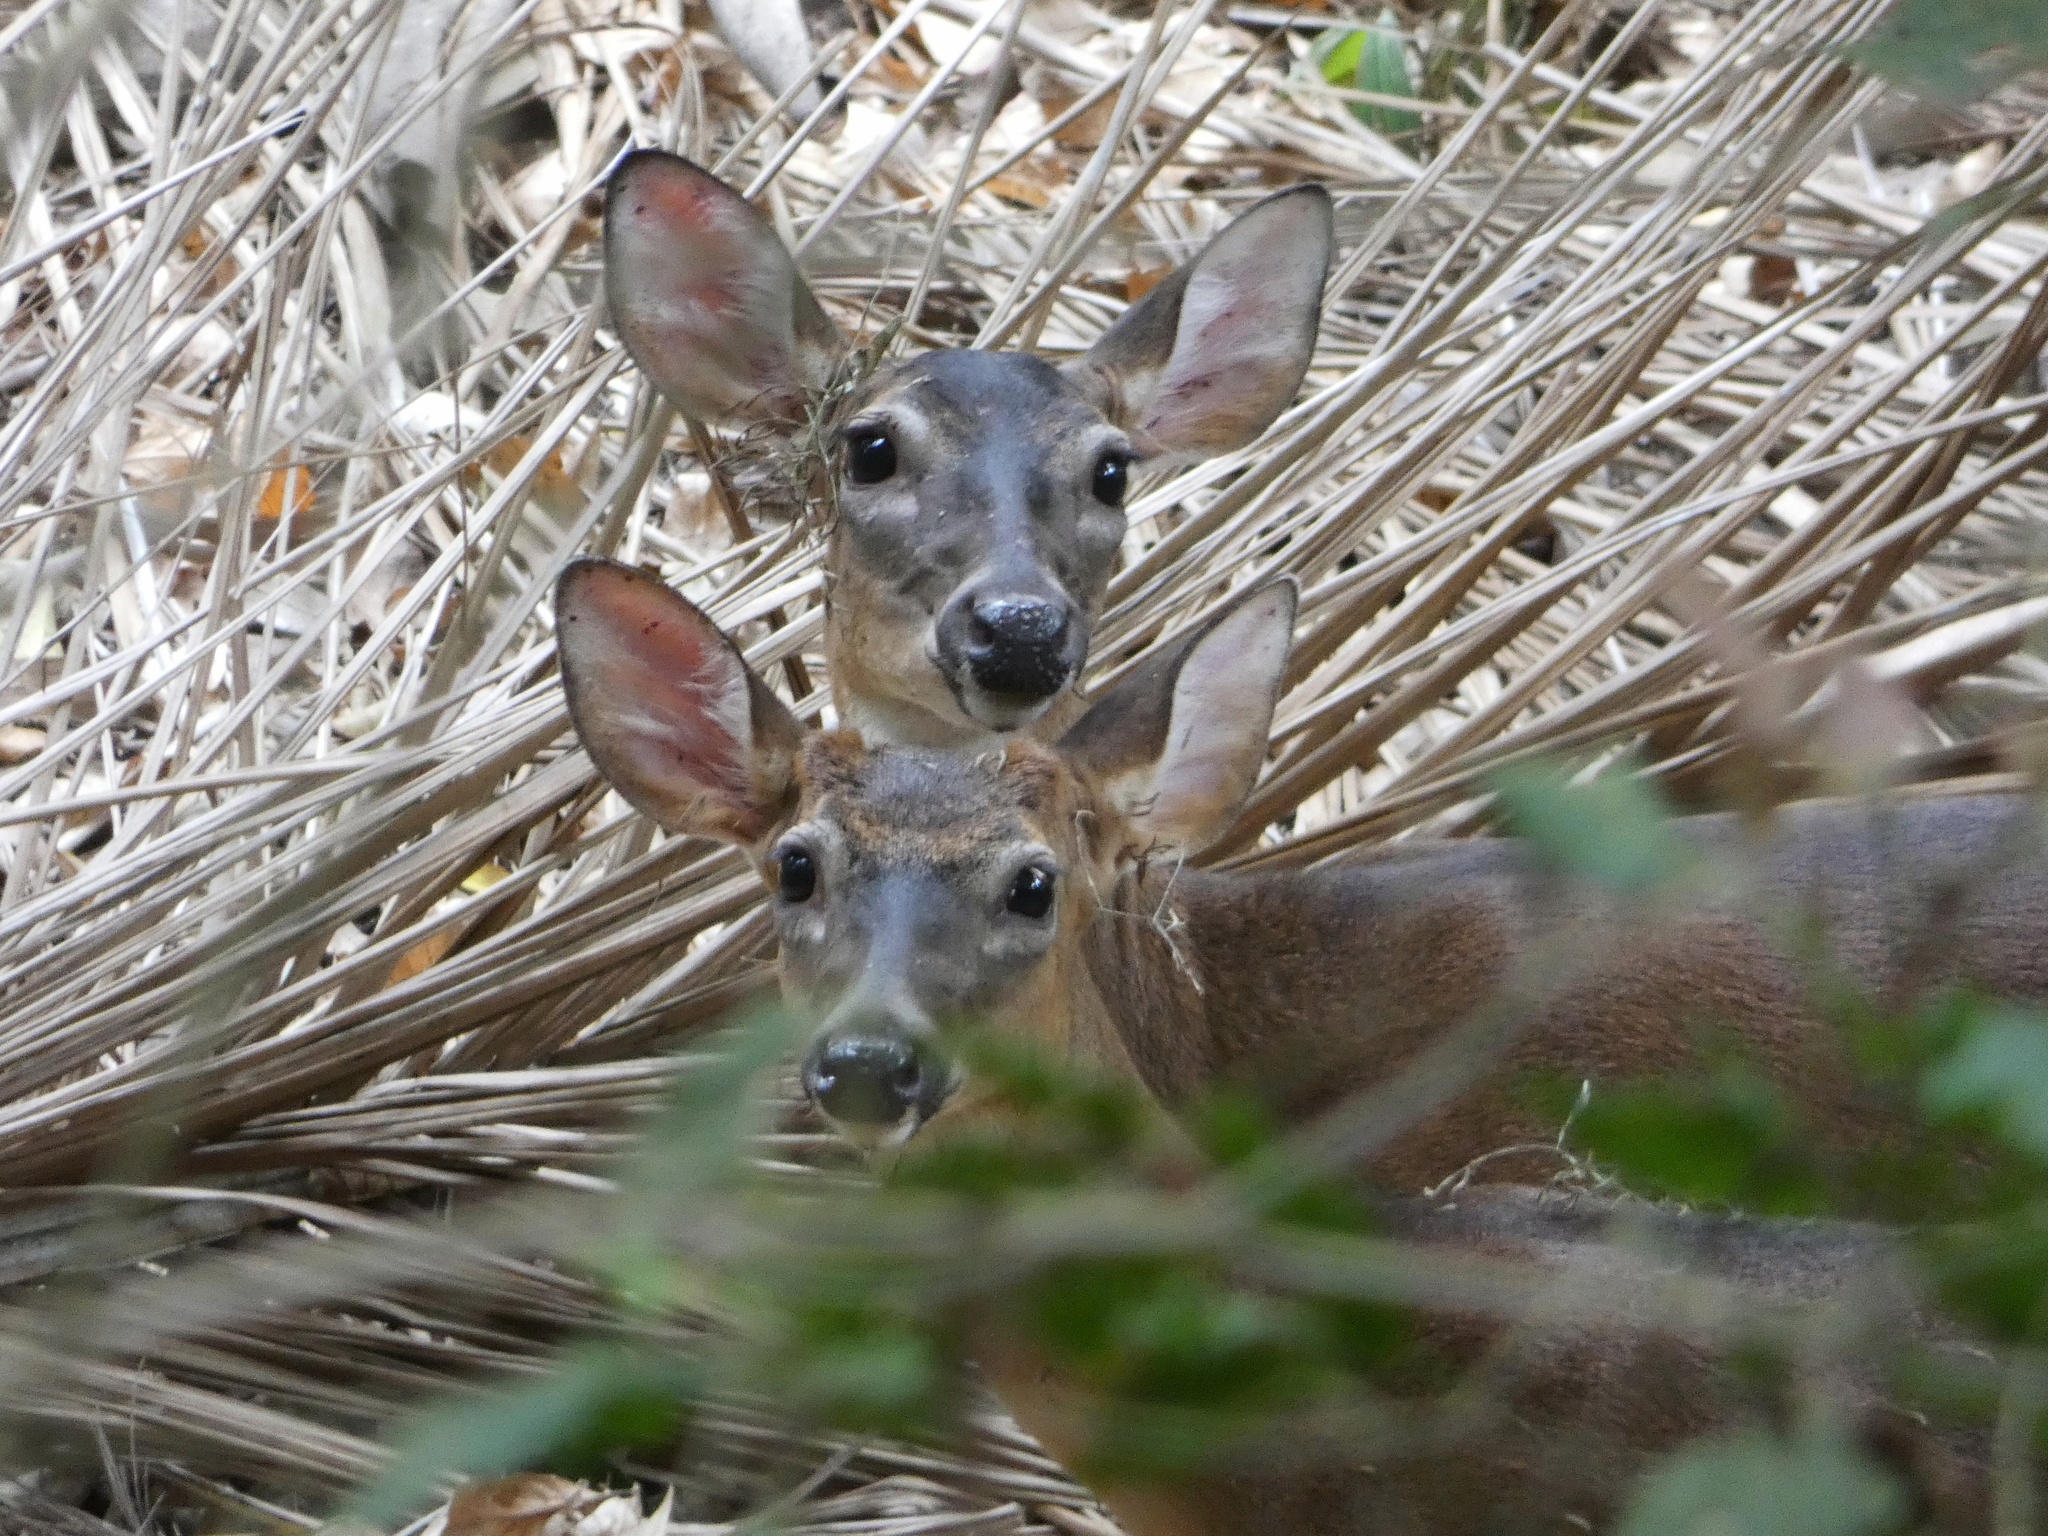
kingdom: Animalia
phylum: Chordata
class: Mammalia
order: Artiodactyla
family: Cervidae
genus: Odocoileus
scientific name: Odocoileus virginianus
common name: White-tailed deer
